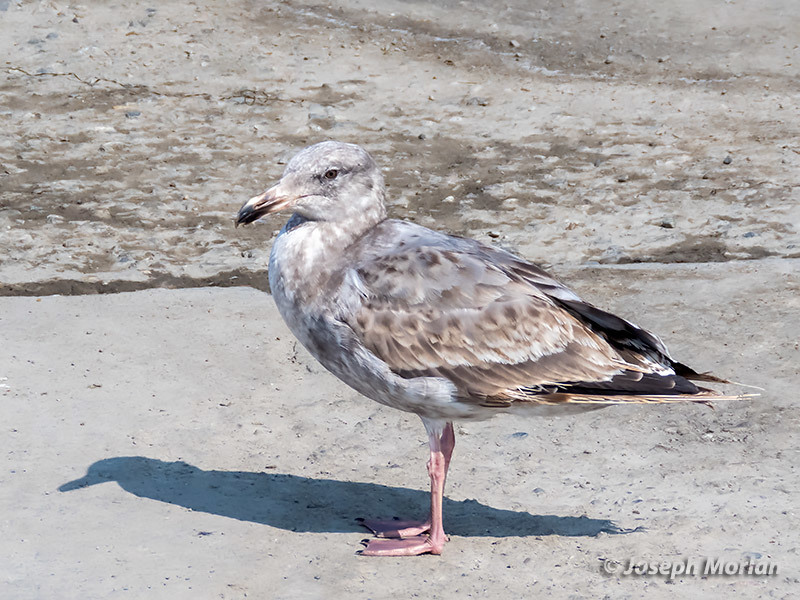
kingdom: Animalia
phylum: Chordata
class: Aves
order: Charadriiformes
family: Laridae
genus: Larus
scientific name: Larus occidentalis
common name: Western gull
